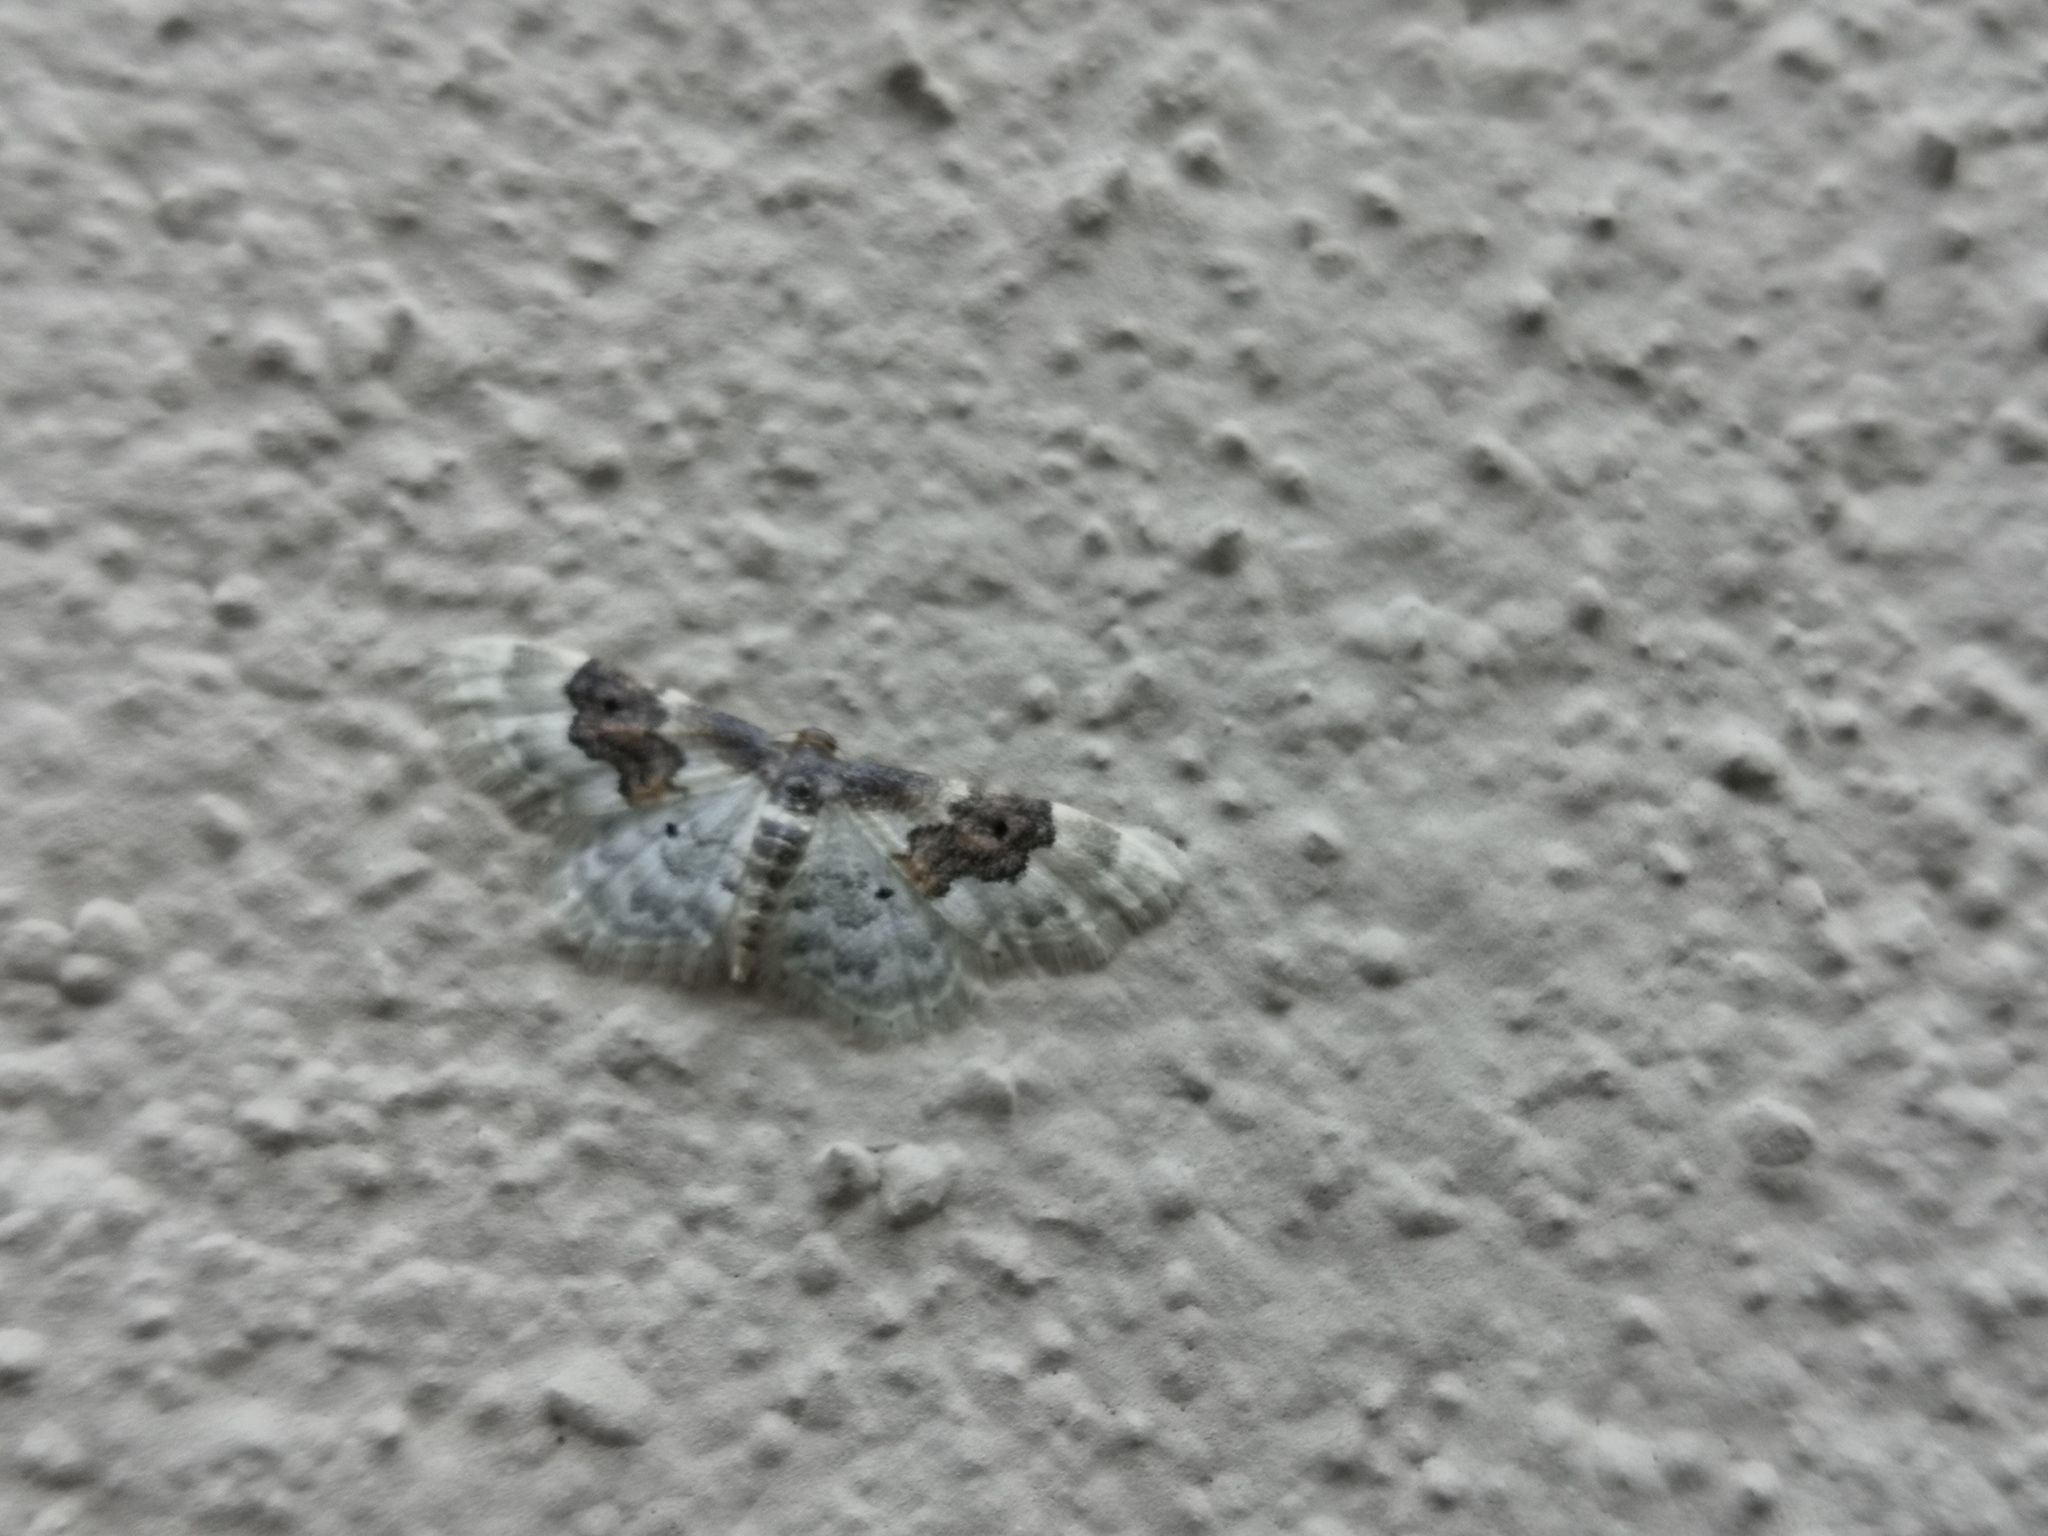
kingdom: Animalia
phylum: Arthropoda
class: Insecta
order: Lepidoptera
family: Geometridae
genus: Idaea
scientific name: Idaea rusticata
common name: Least carpet
